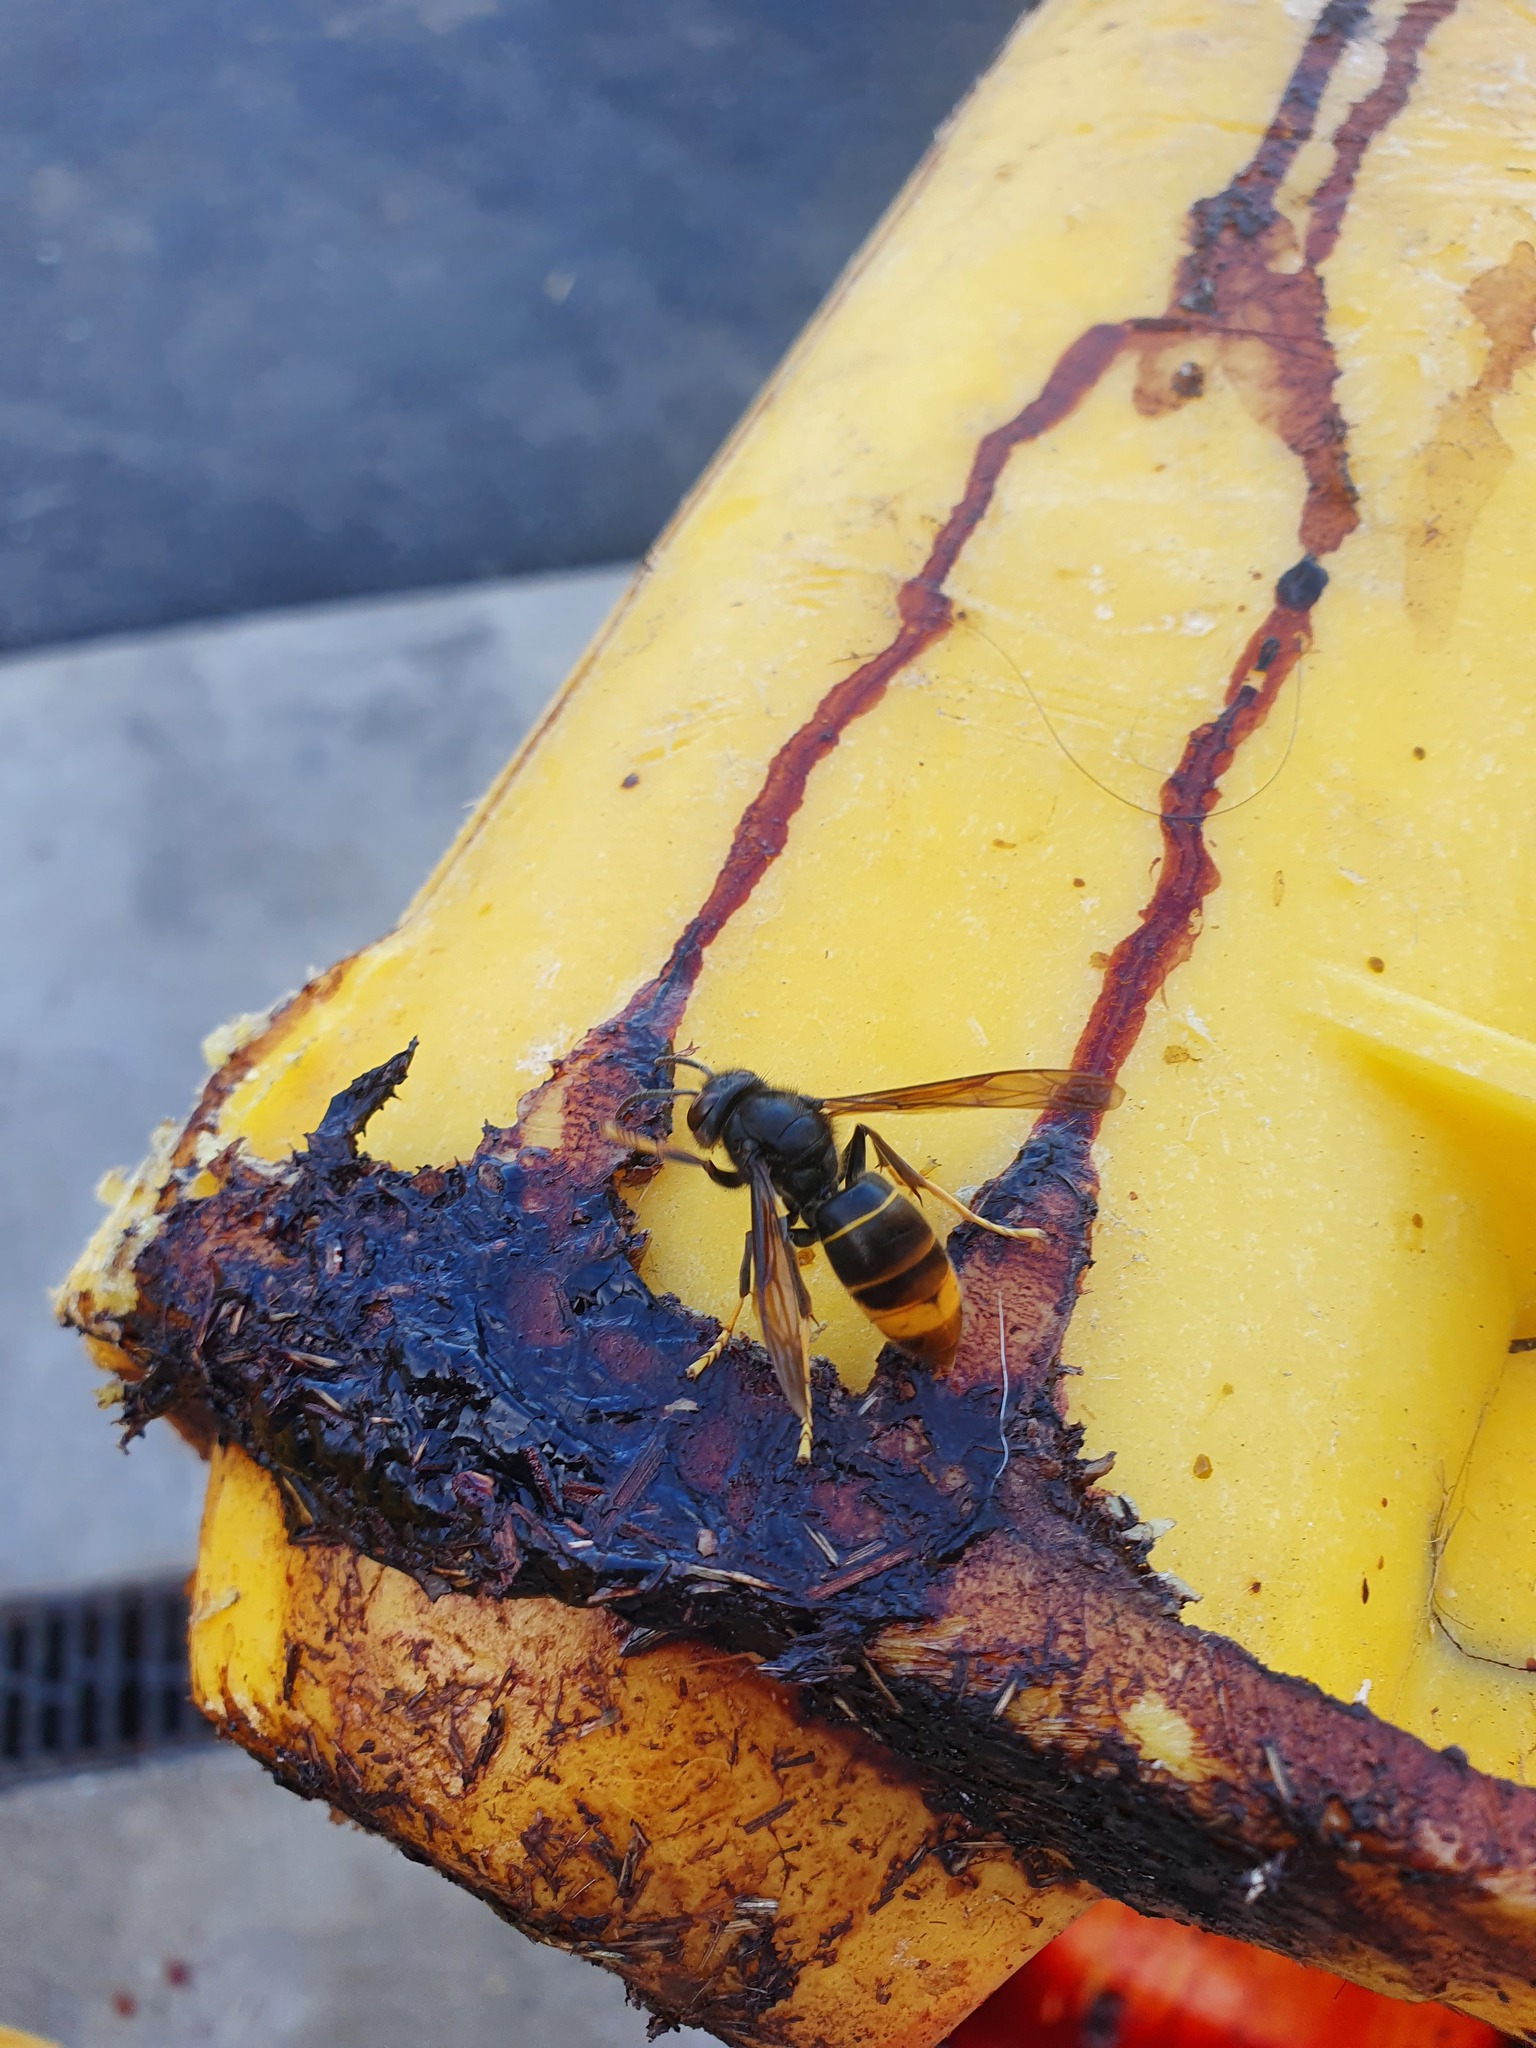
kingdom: Animalia
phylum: Arthropoda
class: Insecta
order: Hymenoptera
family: Vespidae
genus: Vespa
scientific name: Vespa velutina
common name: Asian hornet
